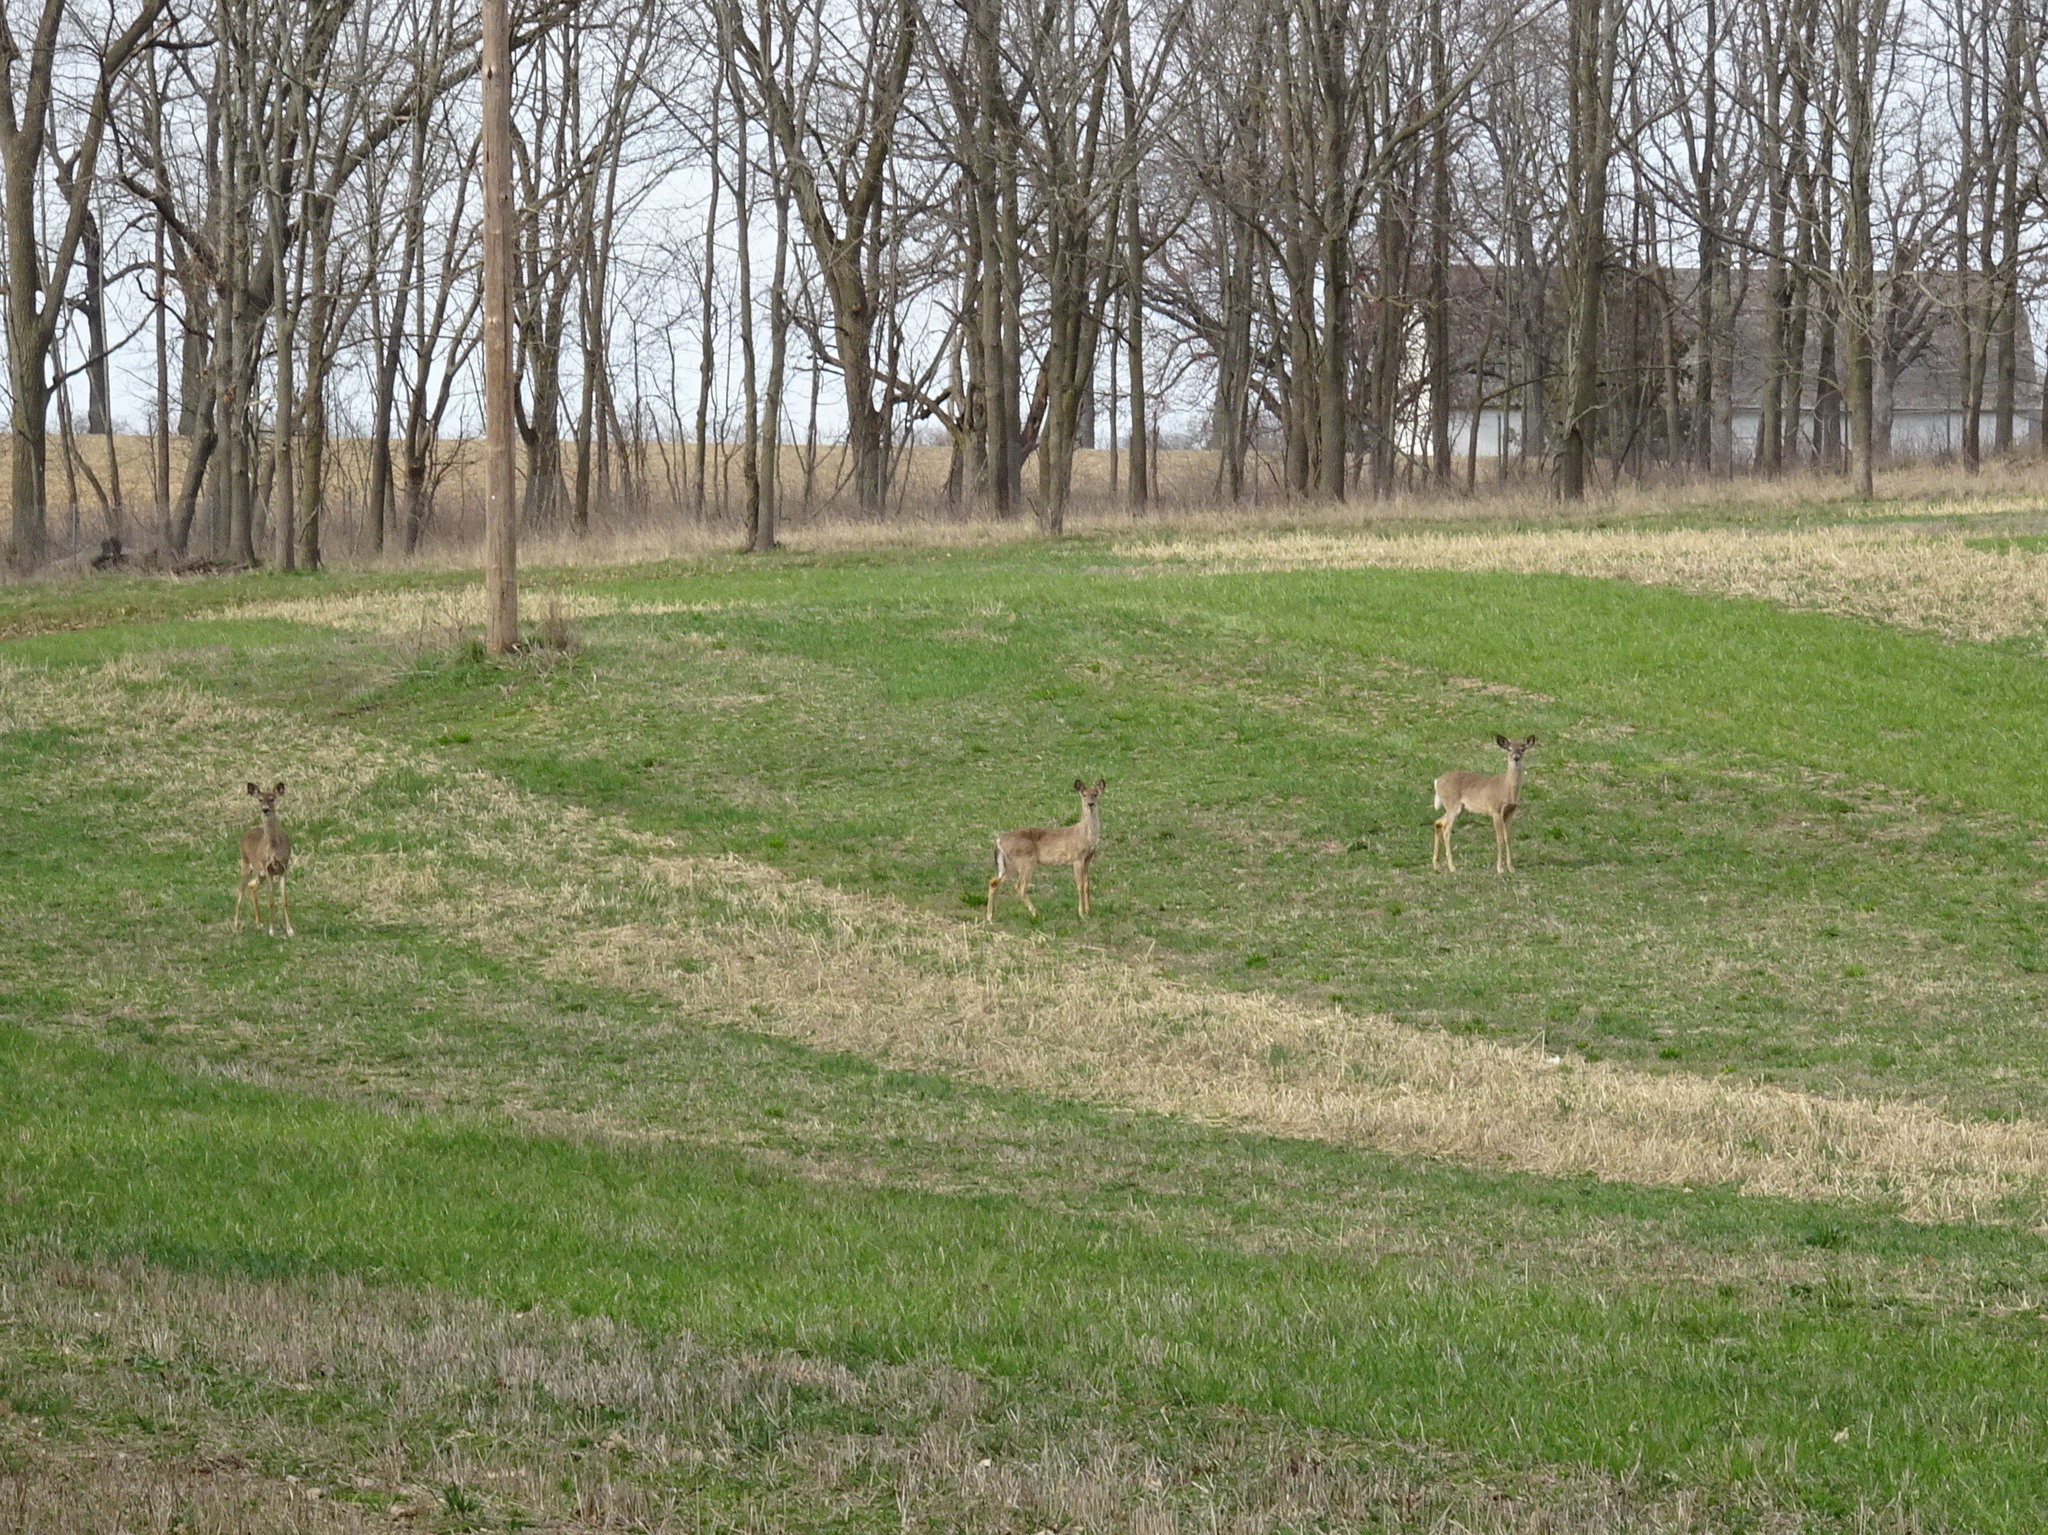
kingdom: Animalia
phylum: Chordata
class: Mammalia
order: Artiodactyla
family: Cervidae
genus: Odocoileus
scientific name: Odocoileus virginianus
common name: White-tailed deer
